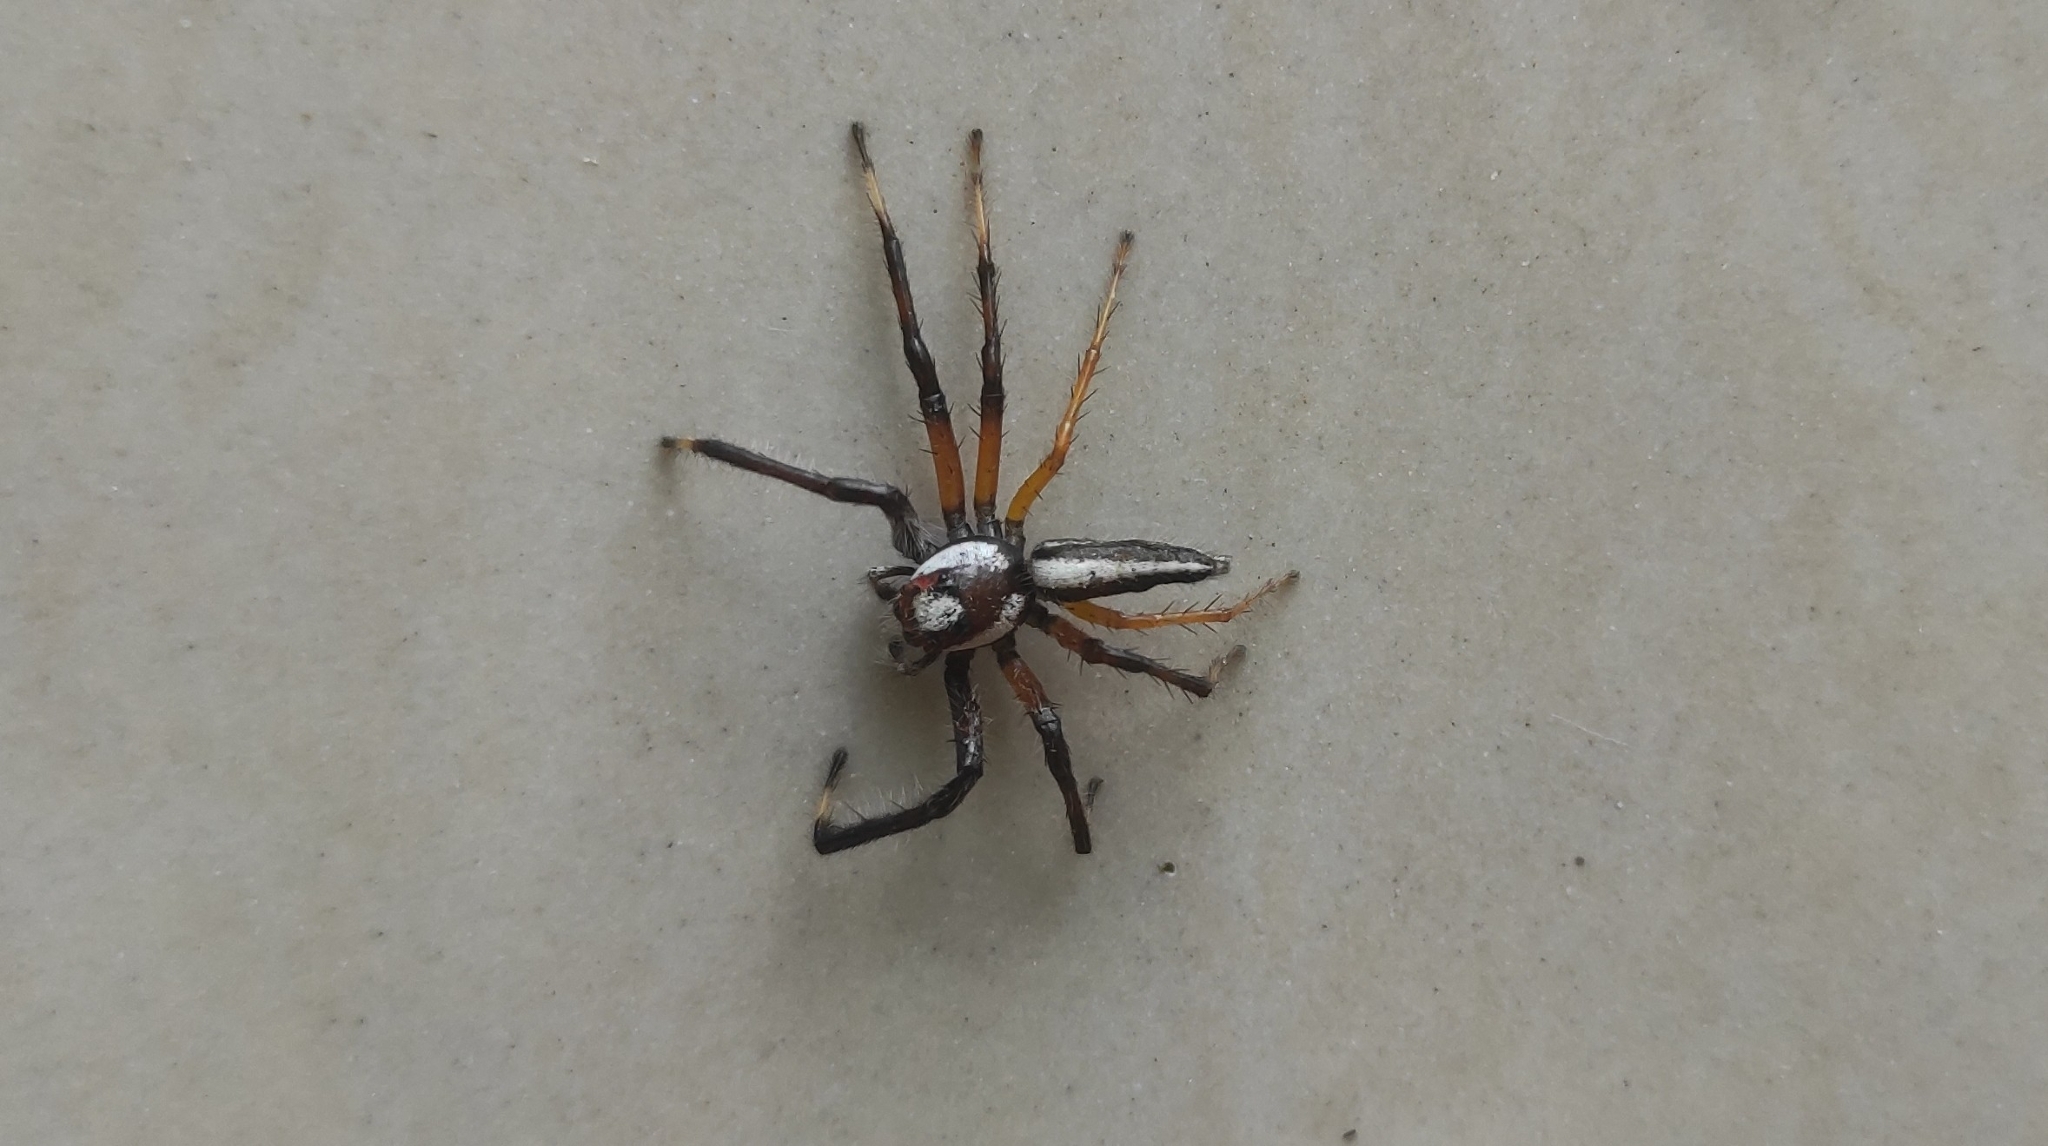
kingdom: Animalia
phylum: Arthropoda
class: Arachnida
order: Araneae
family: Salticidae
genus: Telamonia
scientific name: Telamonia dimidiata
